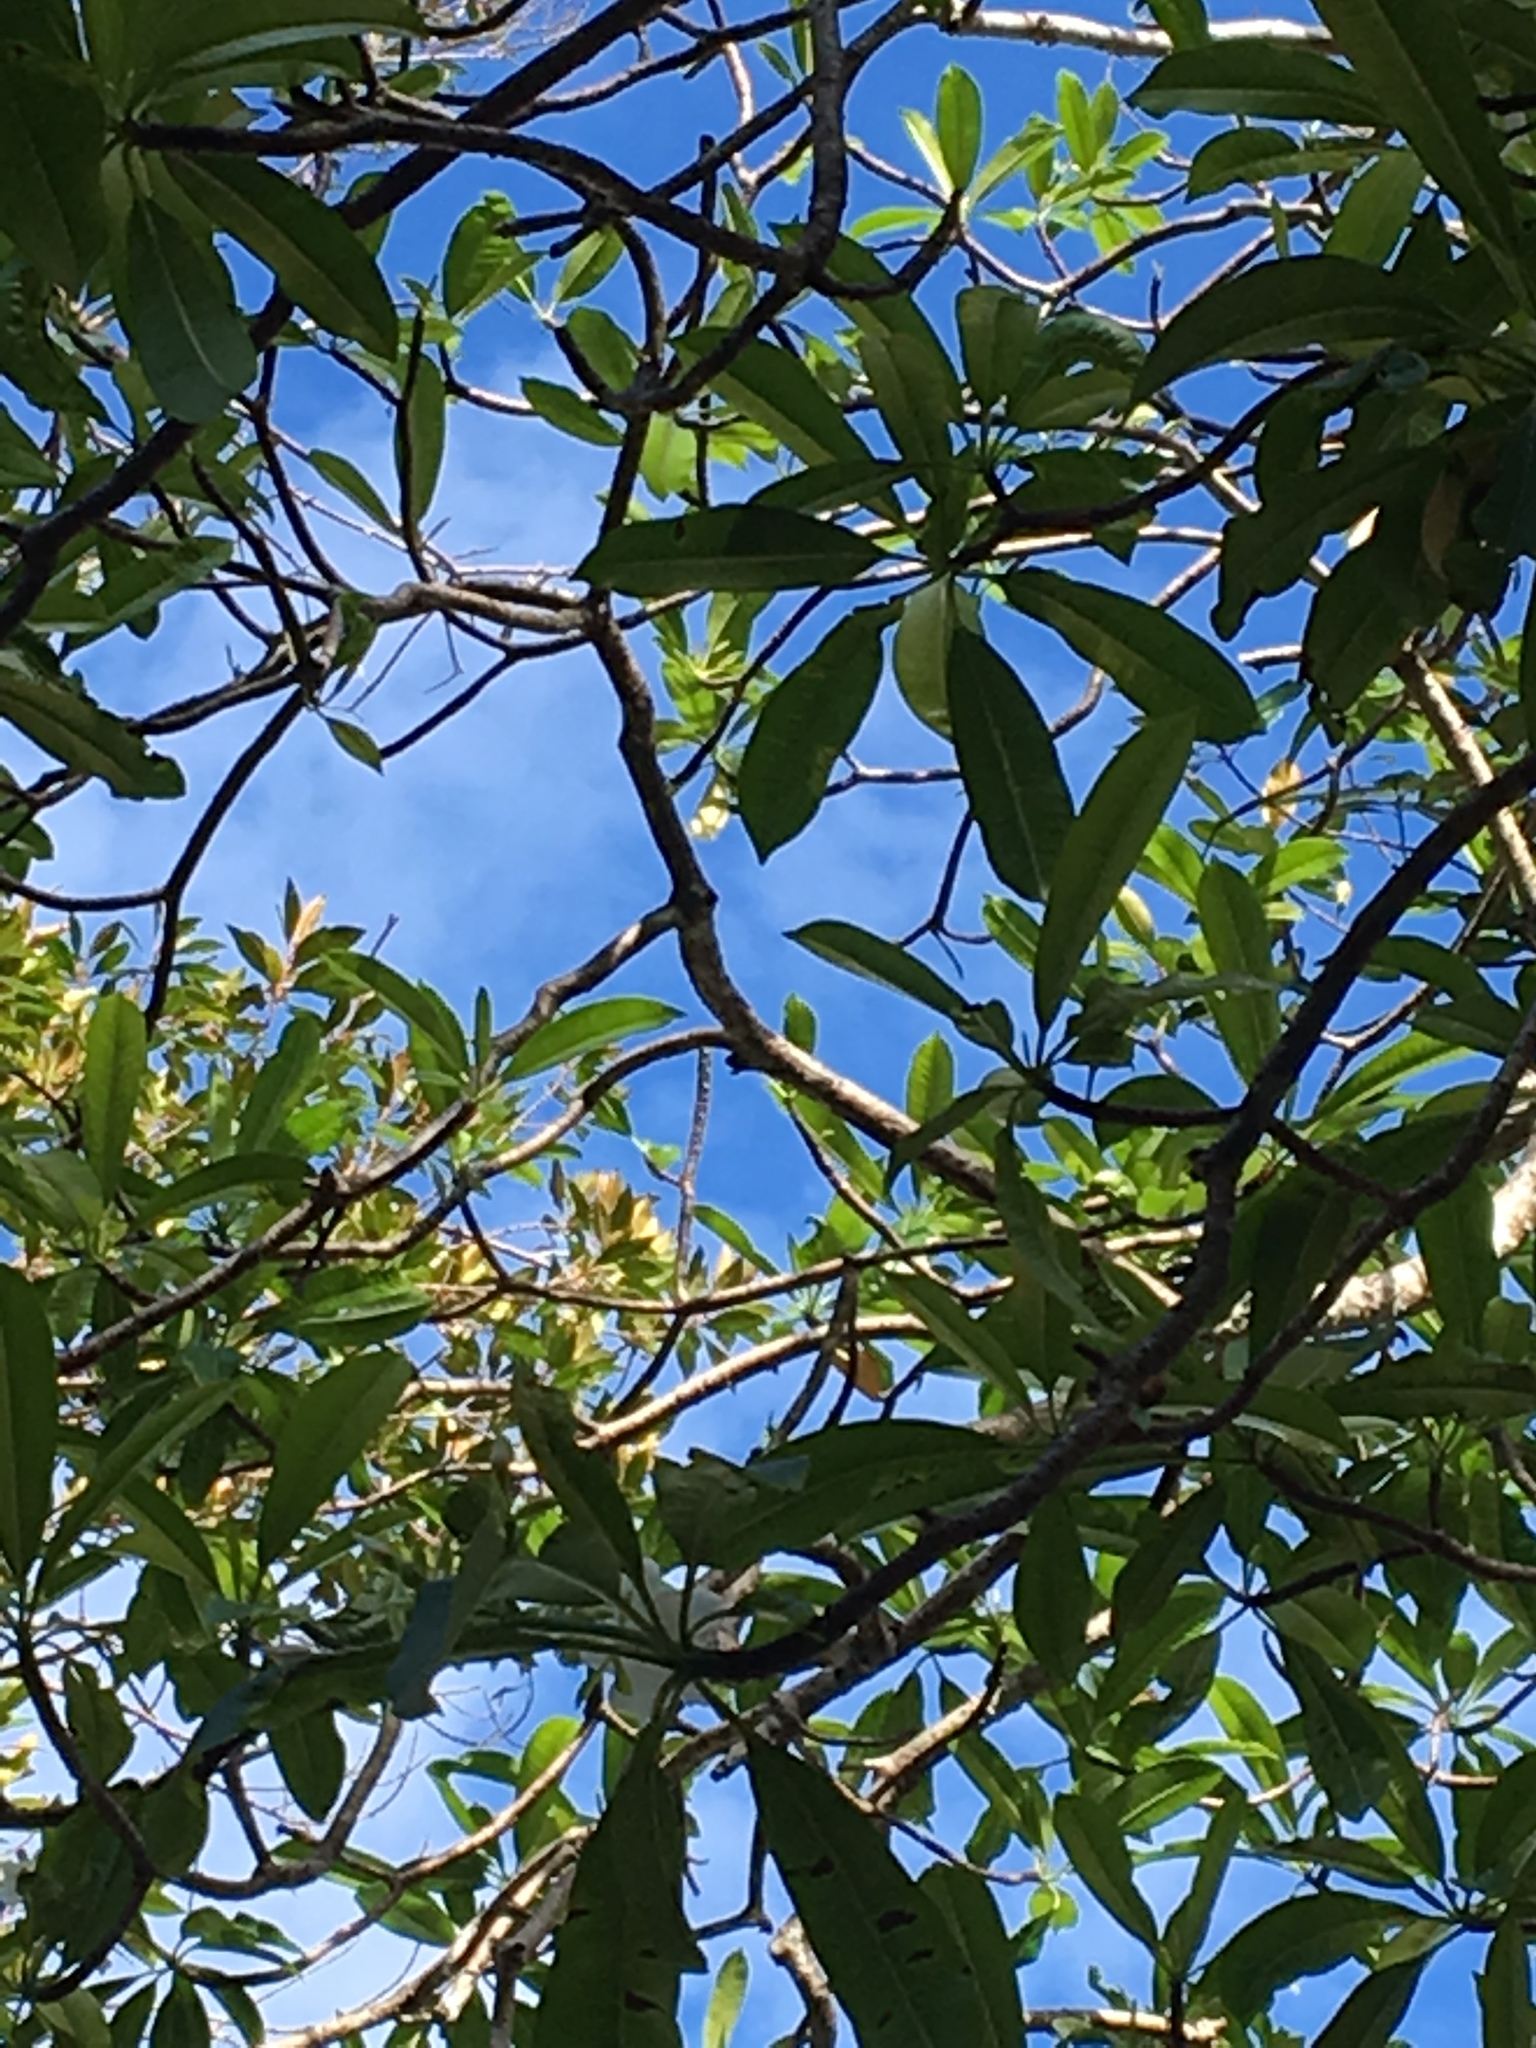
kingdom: Plantae
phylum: Tracheophyta
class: Magnoliopsida
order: Gentianales
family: Apocynaceae
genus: Cerbera
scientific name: Cerbera manghas
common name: Reva
